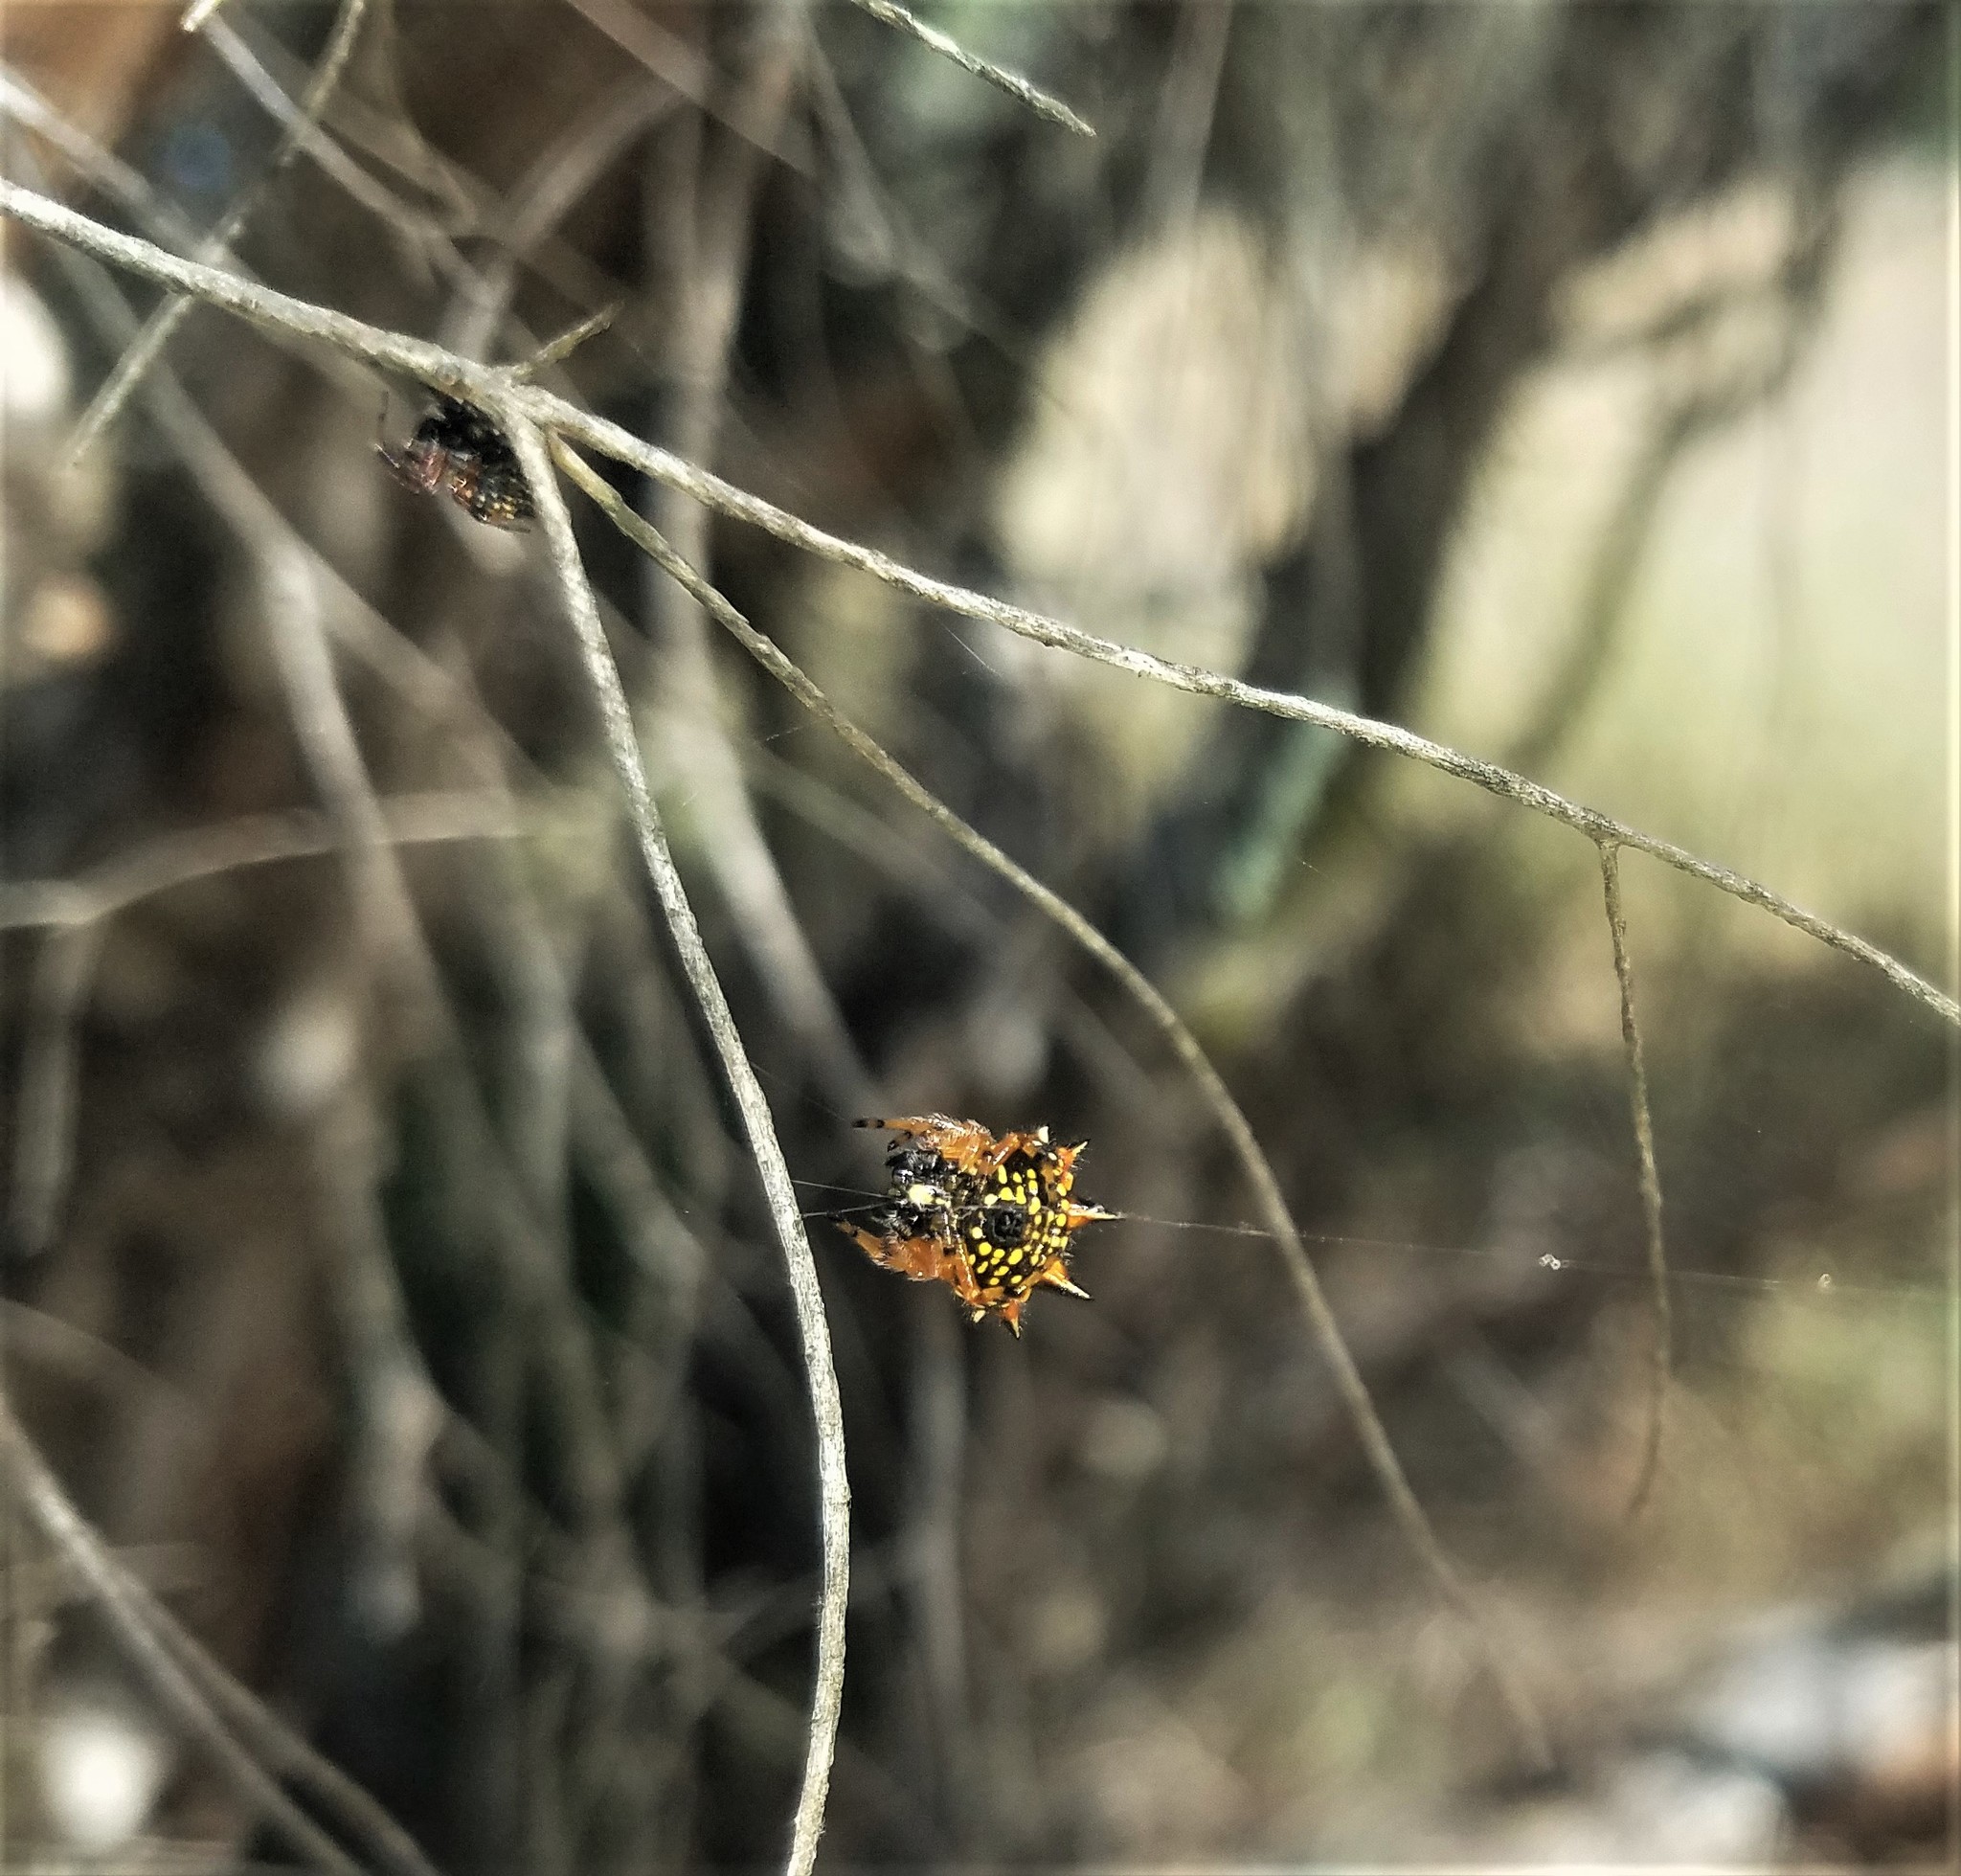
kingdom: Animalia
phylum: Arthropoda
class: Arachnida
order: Araneae
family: Araneidae
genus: Austracantha
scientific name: Austracantha minax
